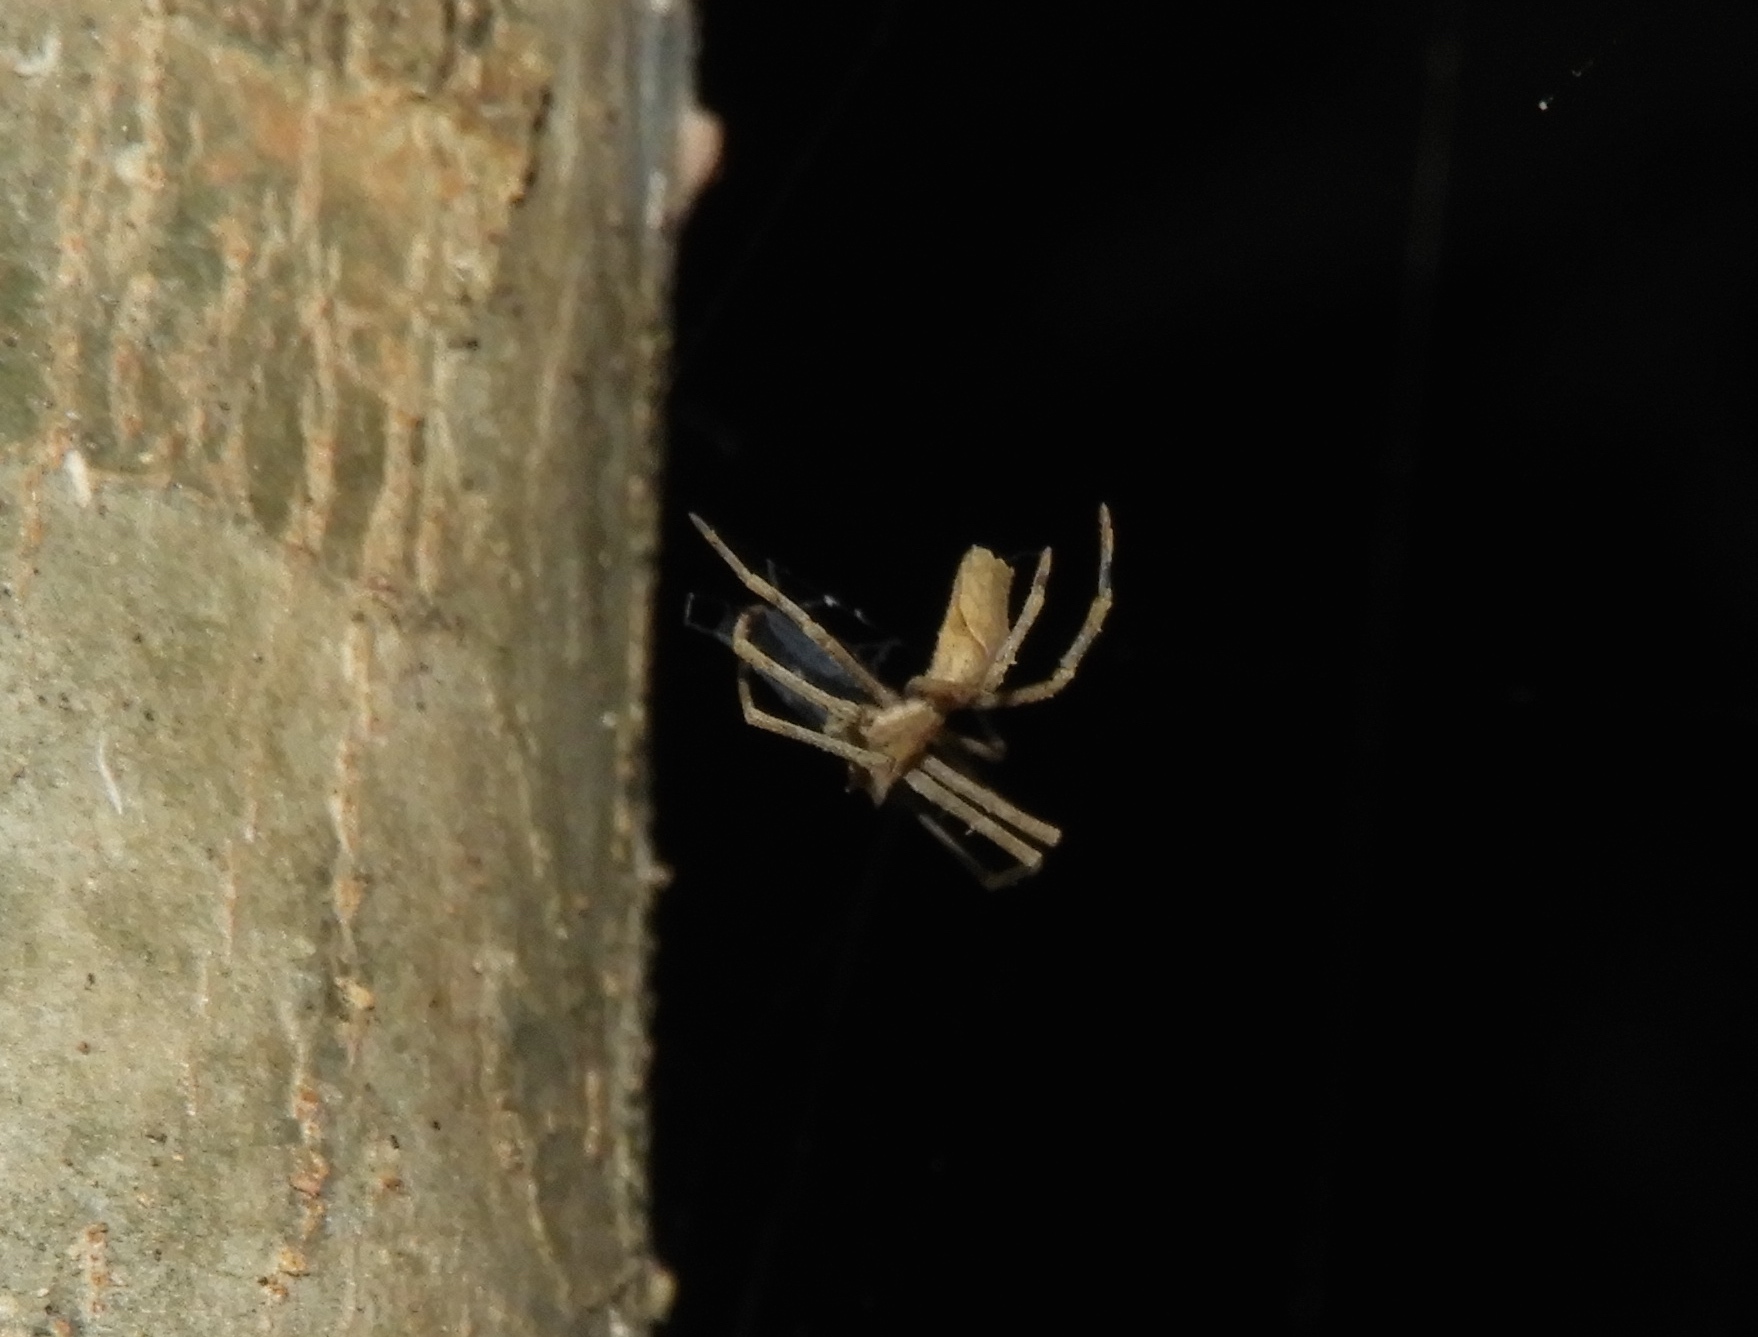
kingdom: Animalia
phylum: Arthropoda
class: Arachnida
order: Araneae
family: Deinopidae
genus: Deinopis
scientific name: Deinopis aurita
